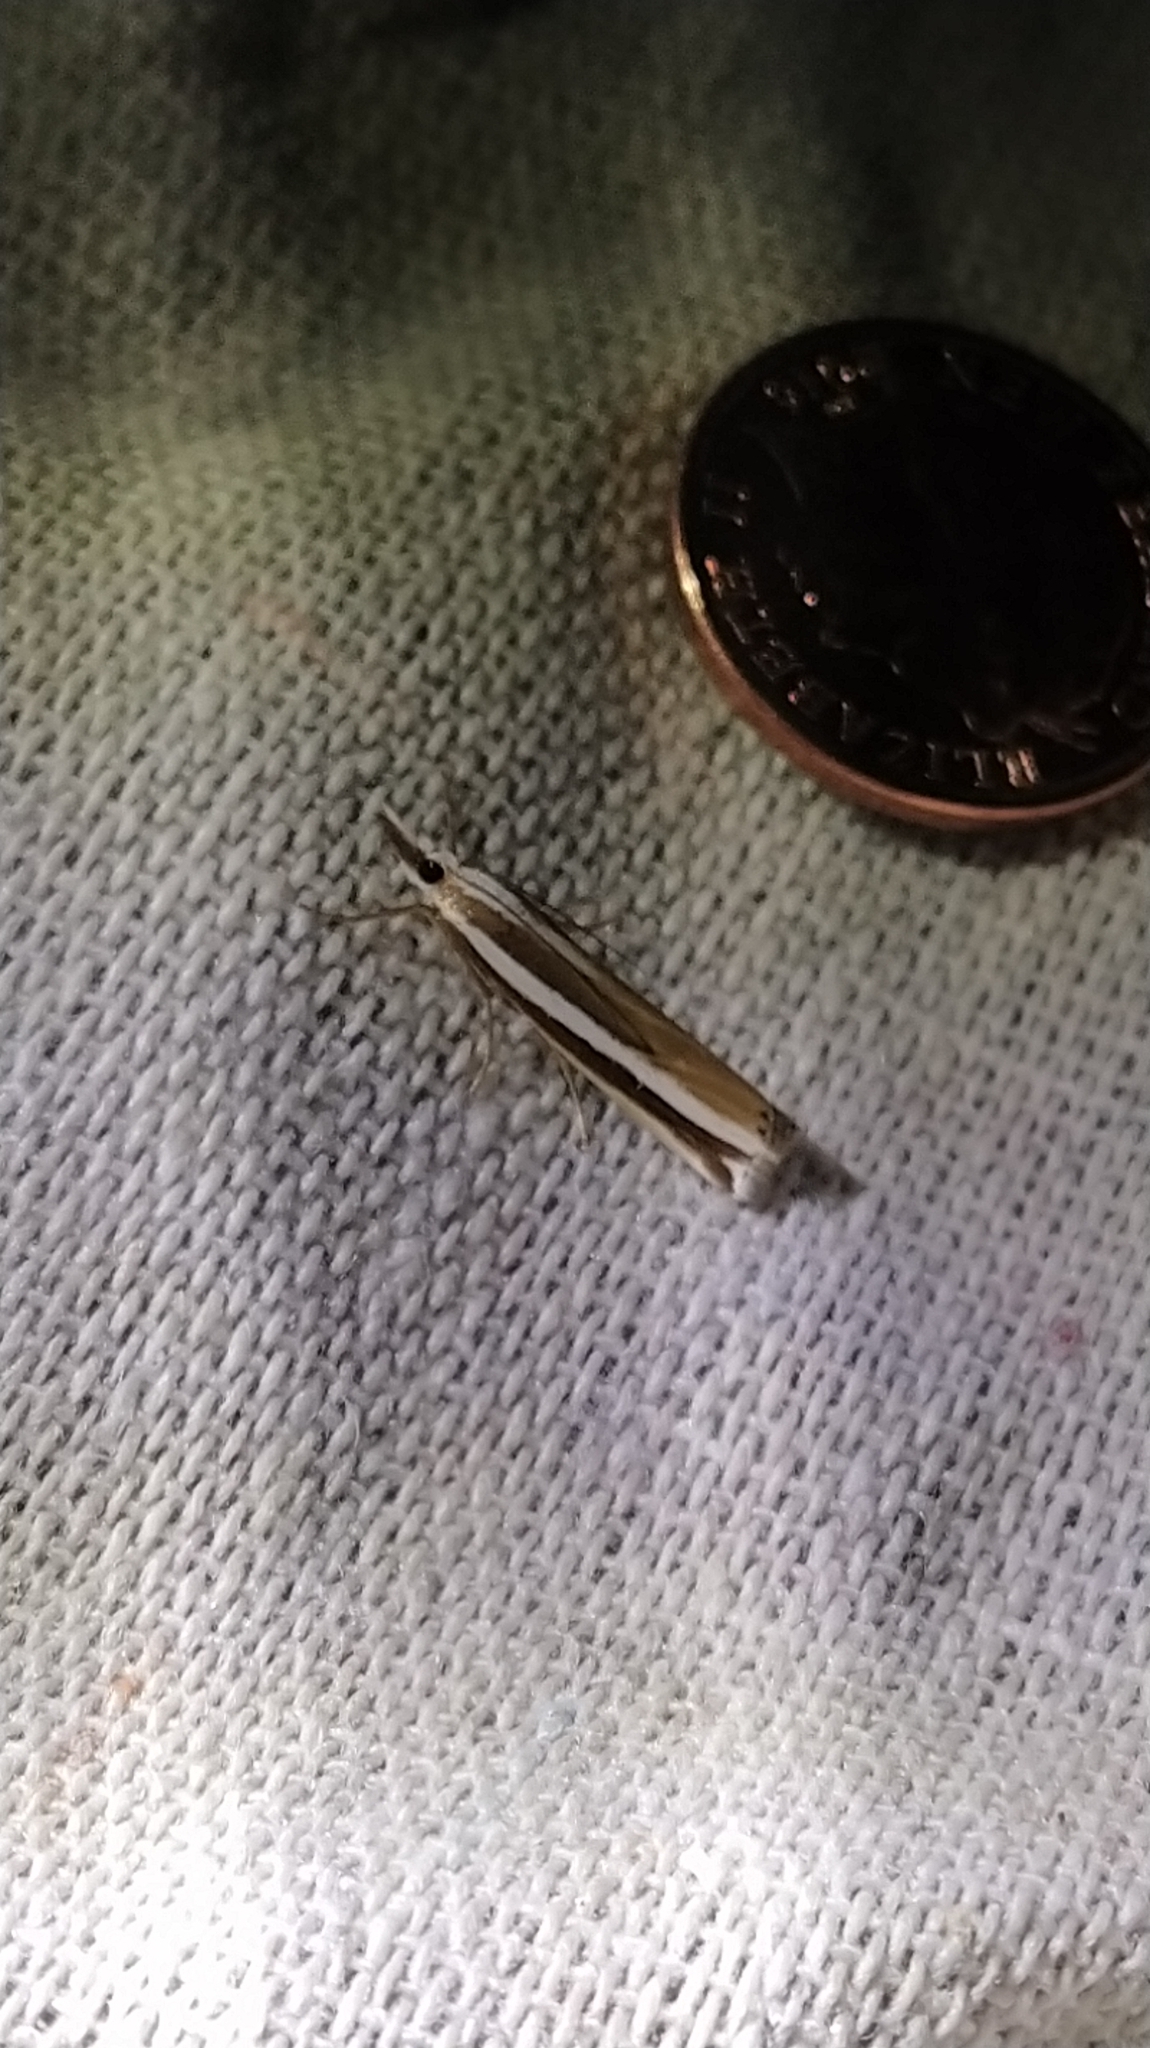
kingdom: Animalia
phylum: Arthropoda
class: Insecta
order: Lepidoptera
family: Crambidae
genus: Orocrambus
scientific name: Orocrambus apicellus
